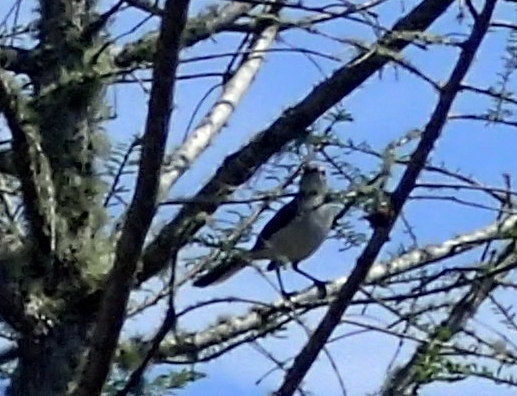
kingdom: Animalia
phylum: Chordata
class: Aves
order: Passeriformes
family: Mimidae
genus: Mimus
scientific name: Mimus polyglottos
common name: Northern mockingbird
